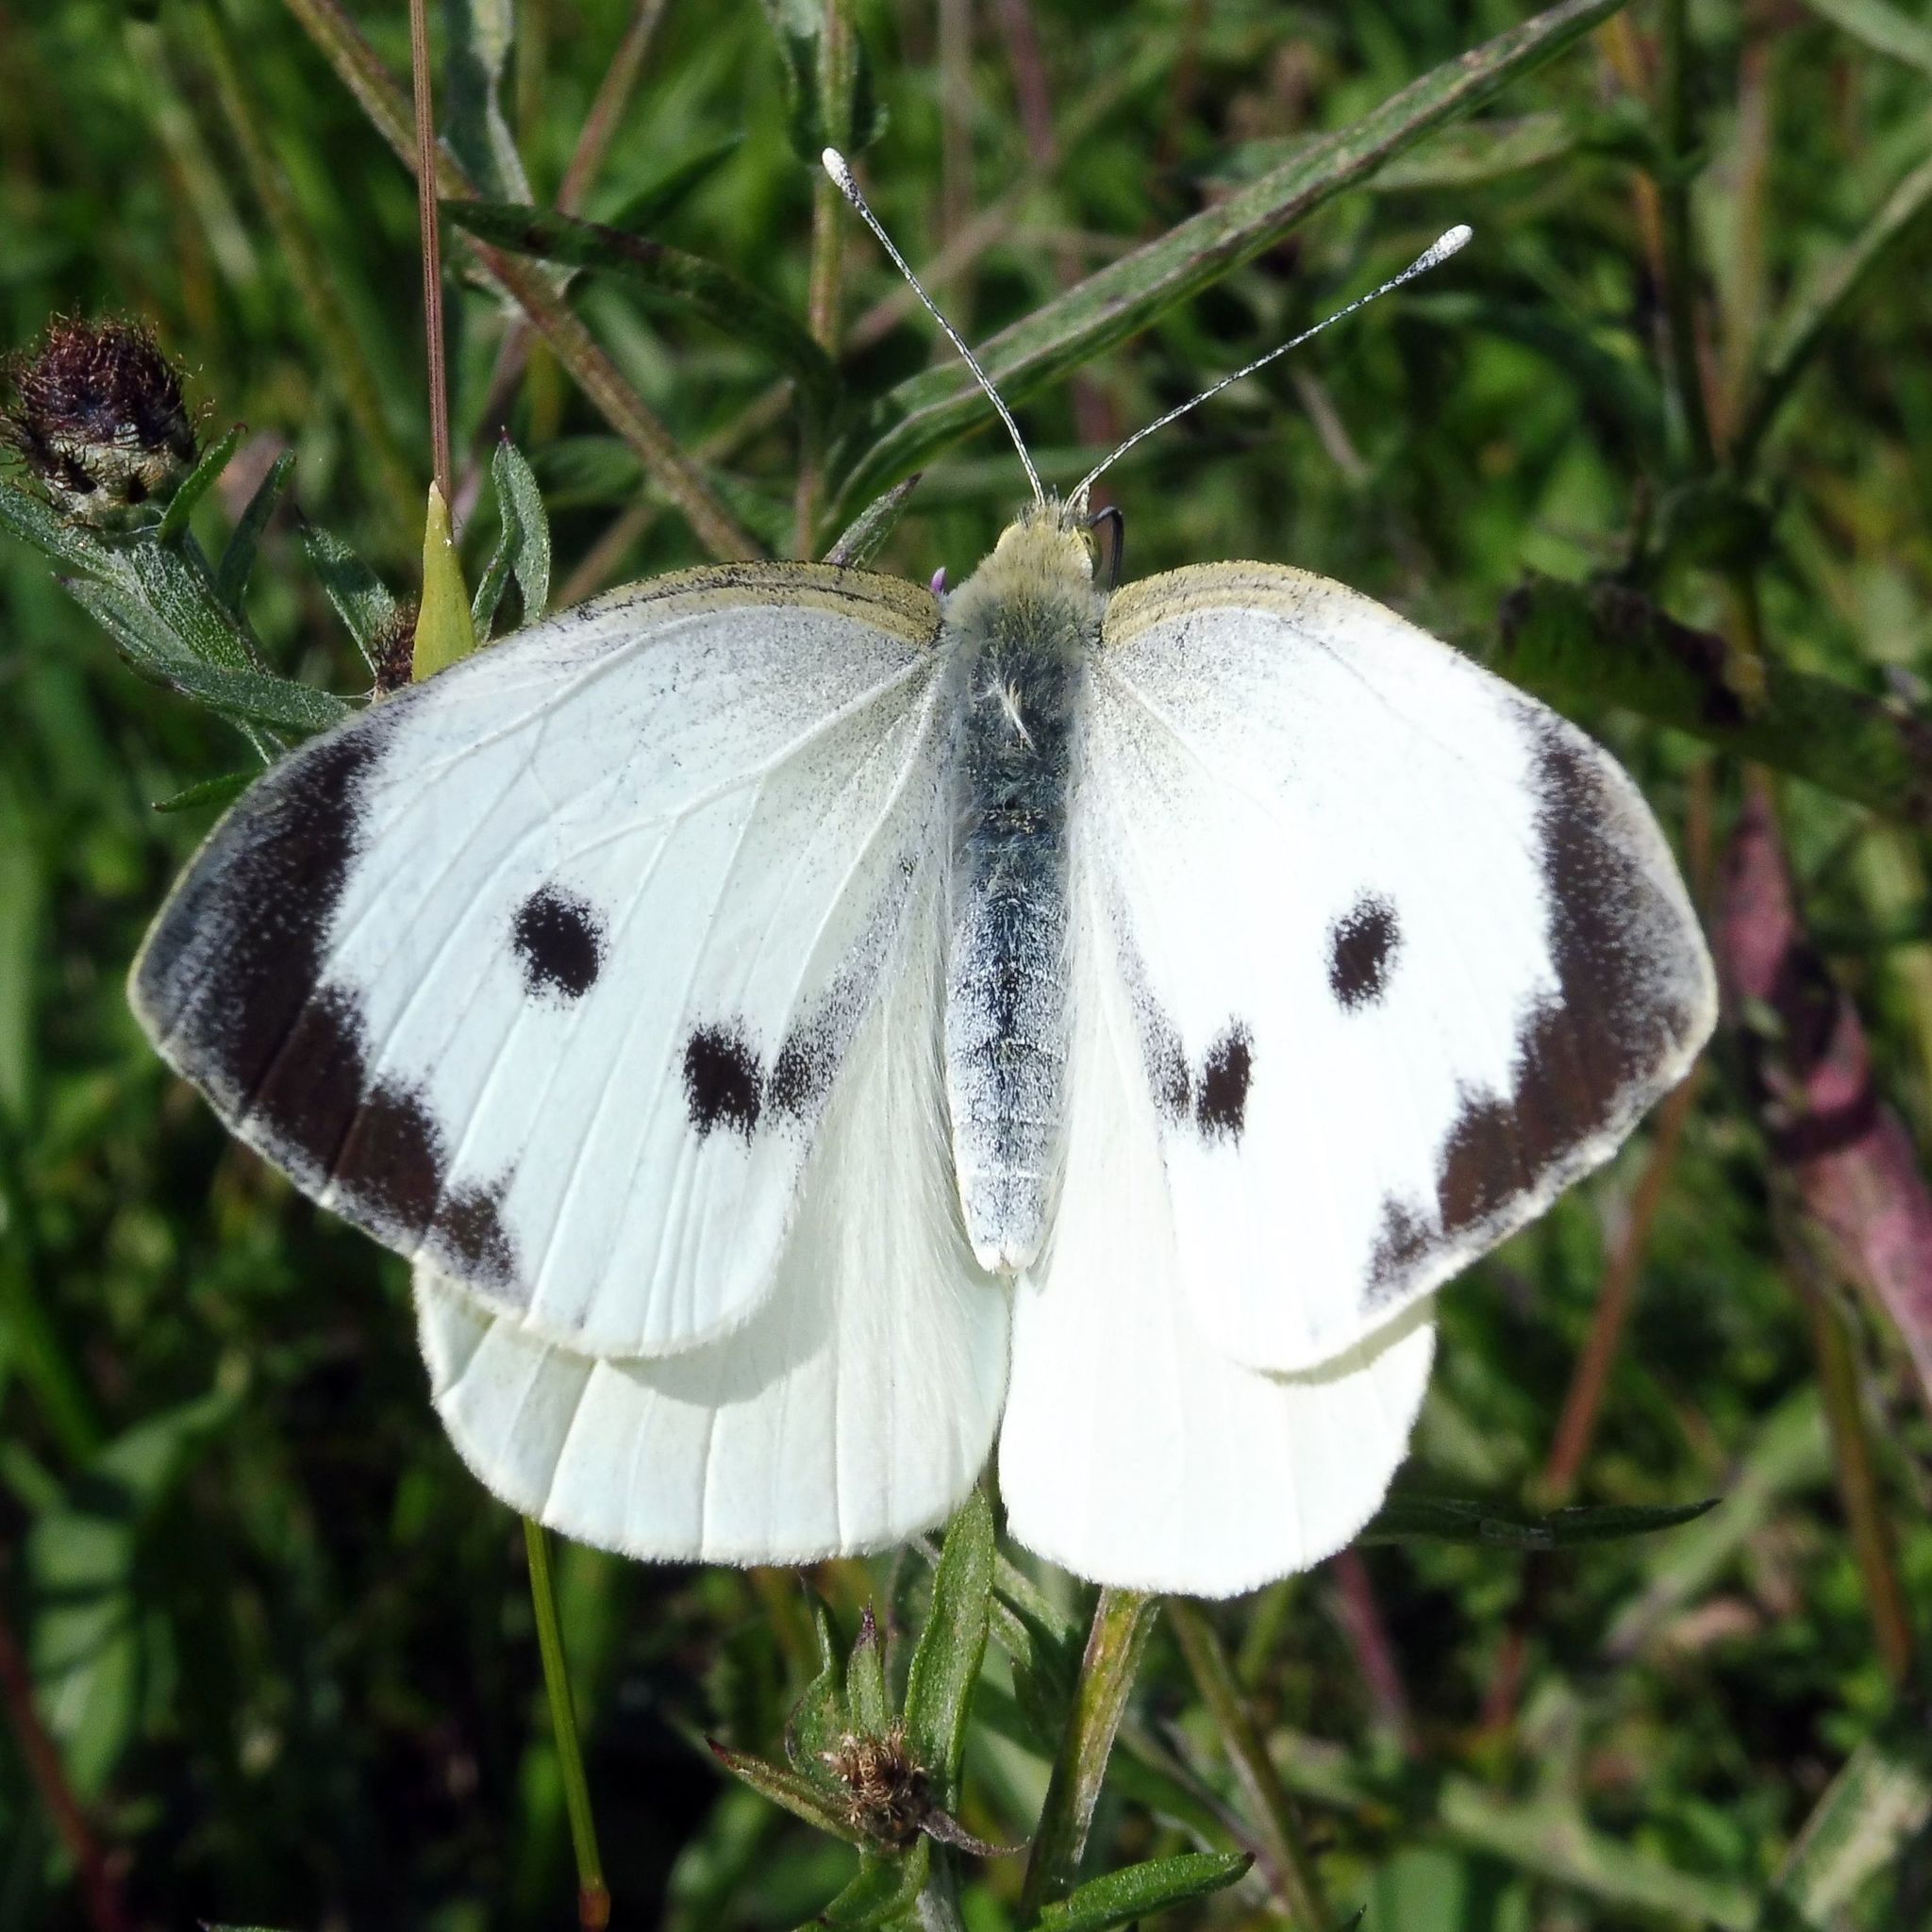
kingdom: Animalia
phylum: Arthropoda
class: Insecta
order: Lepidoptera
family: Pieridae
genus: Pieris
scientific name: Pieris brassicae
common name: Large white
